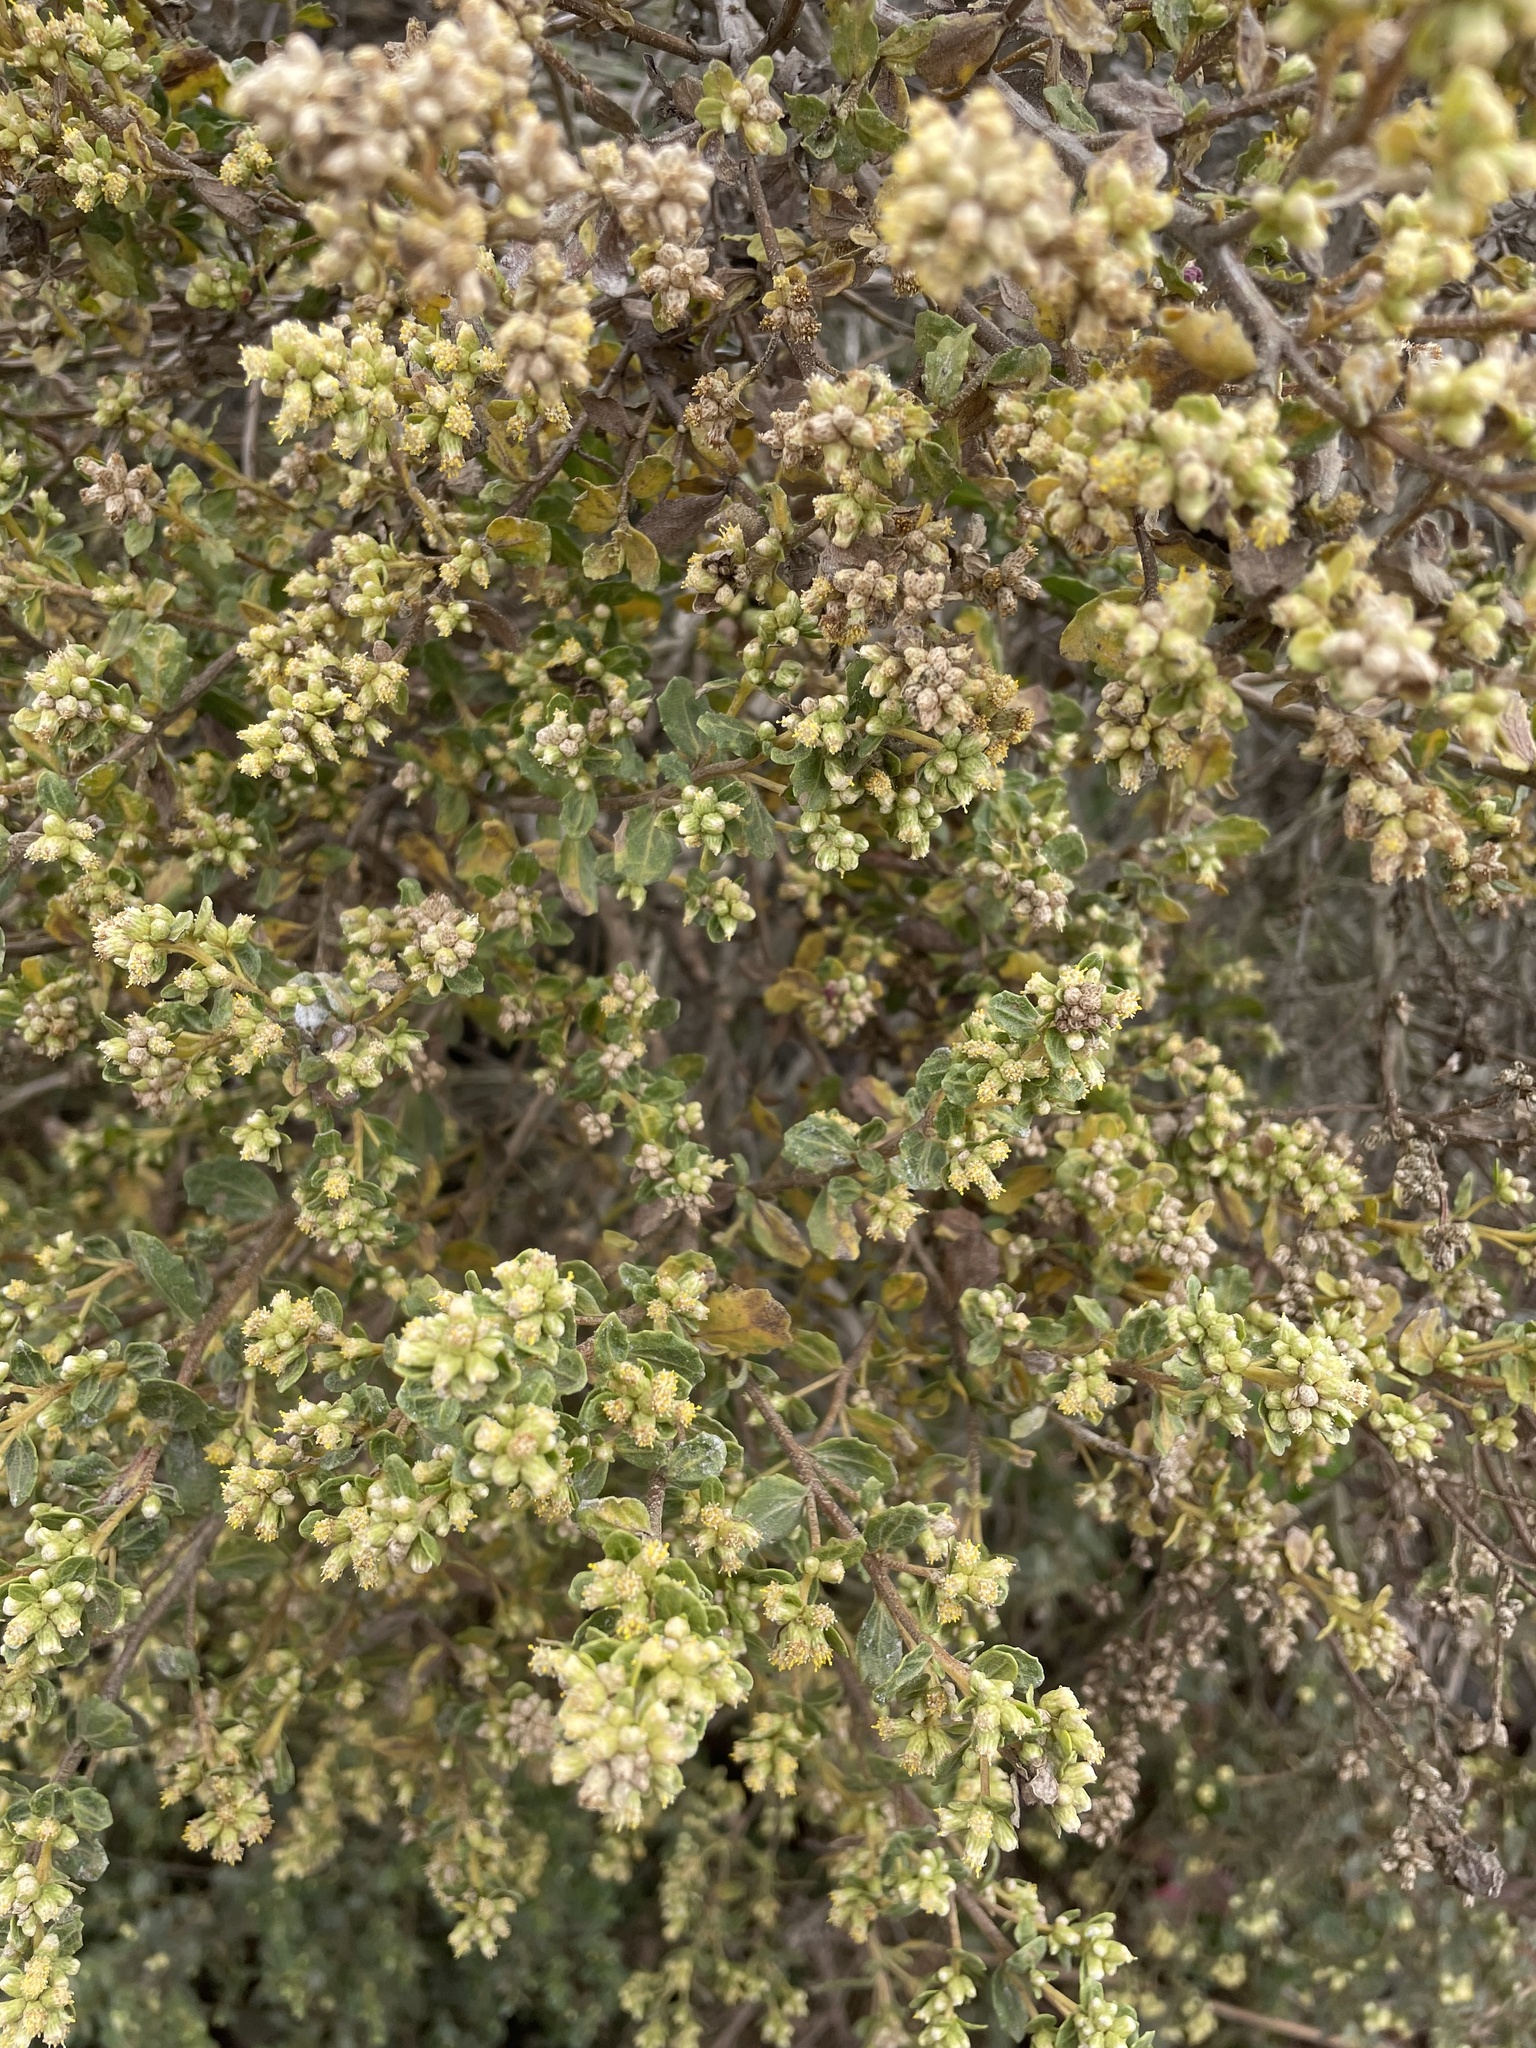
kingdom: Plantae
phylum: Tracheophyta
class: Magnoliopsida
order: Asterales
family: Asteraceae
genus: Baccharis
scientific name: Baccharis pilularis
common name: Coyotebrush
